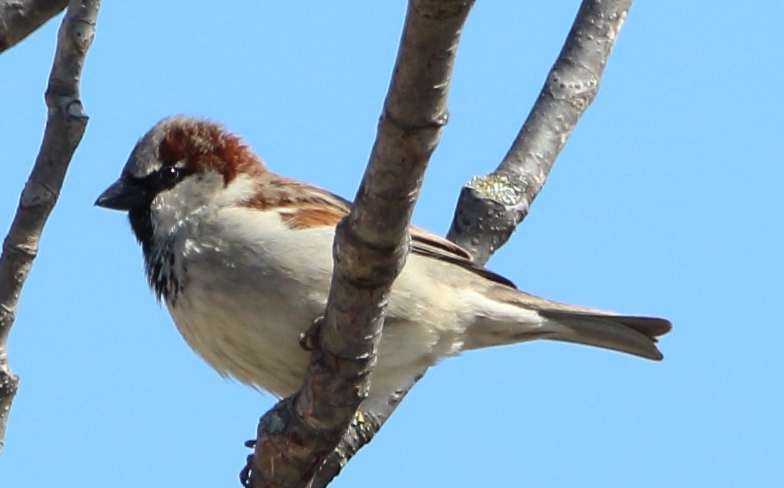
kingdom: Animalia
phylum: Chordata
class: Aves
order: Passeriformes
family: Passeridae
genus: Passer
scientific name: Passer domesticus
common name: House sparrow
